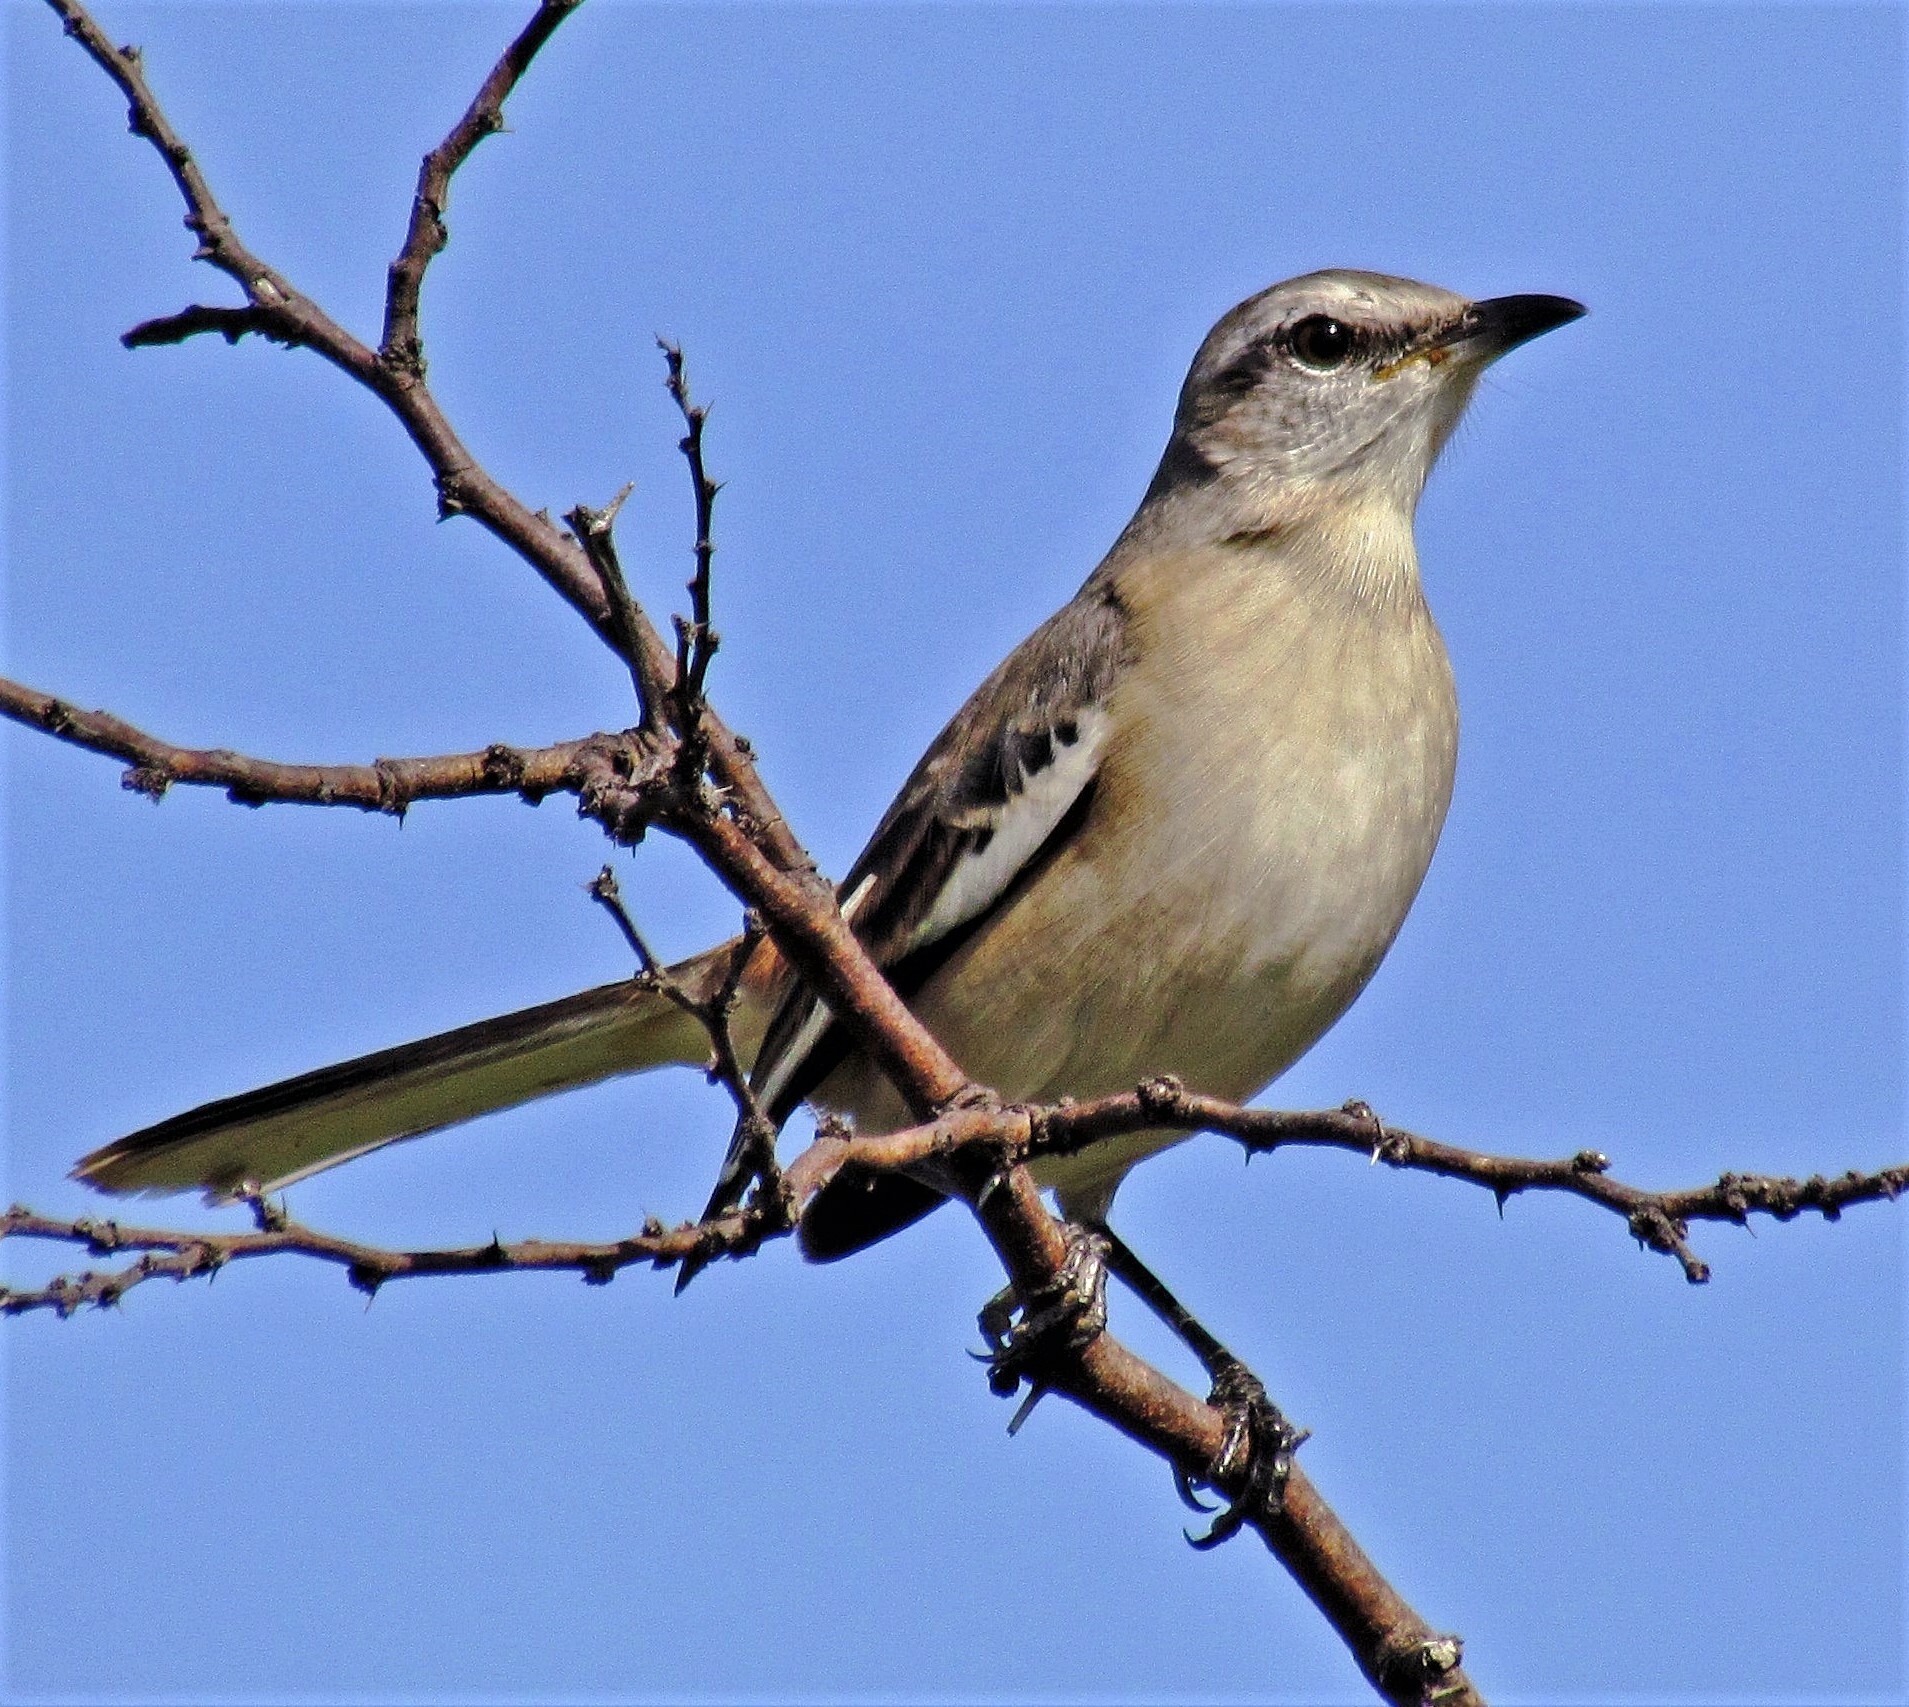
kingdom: Animalia
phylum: Chordata
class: Aves
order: Passeriformes
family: Mimidae
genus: Mimus
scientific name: Mimus triurus
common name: White-banded mockingbird
